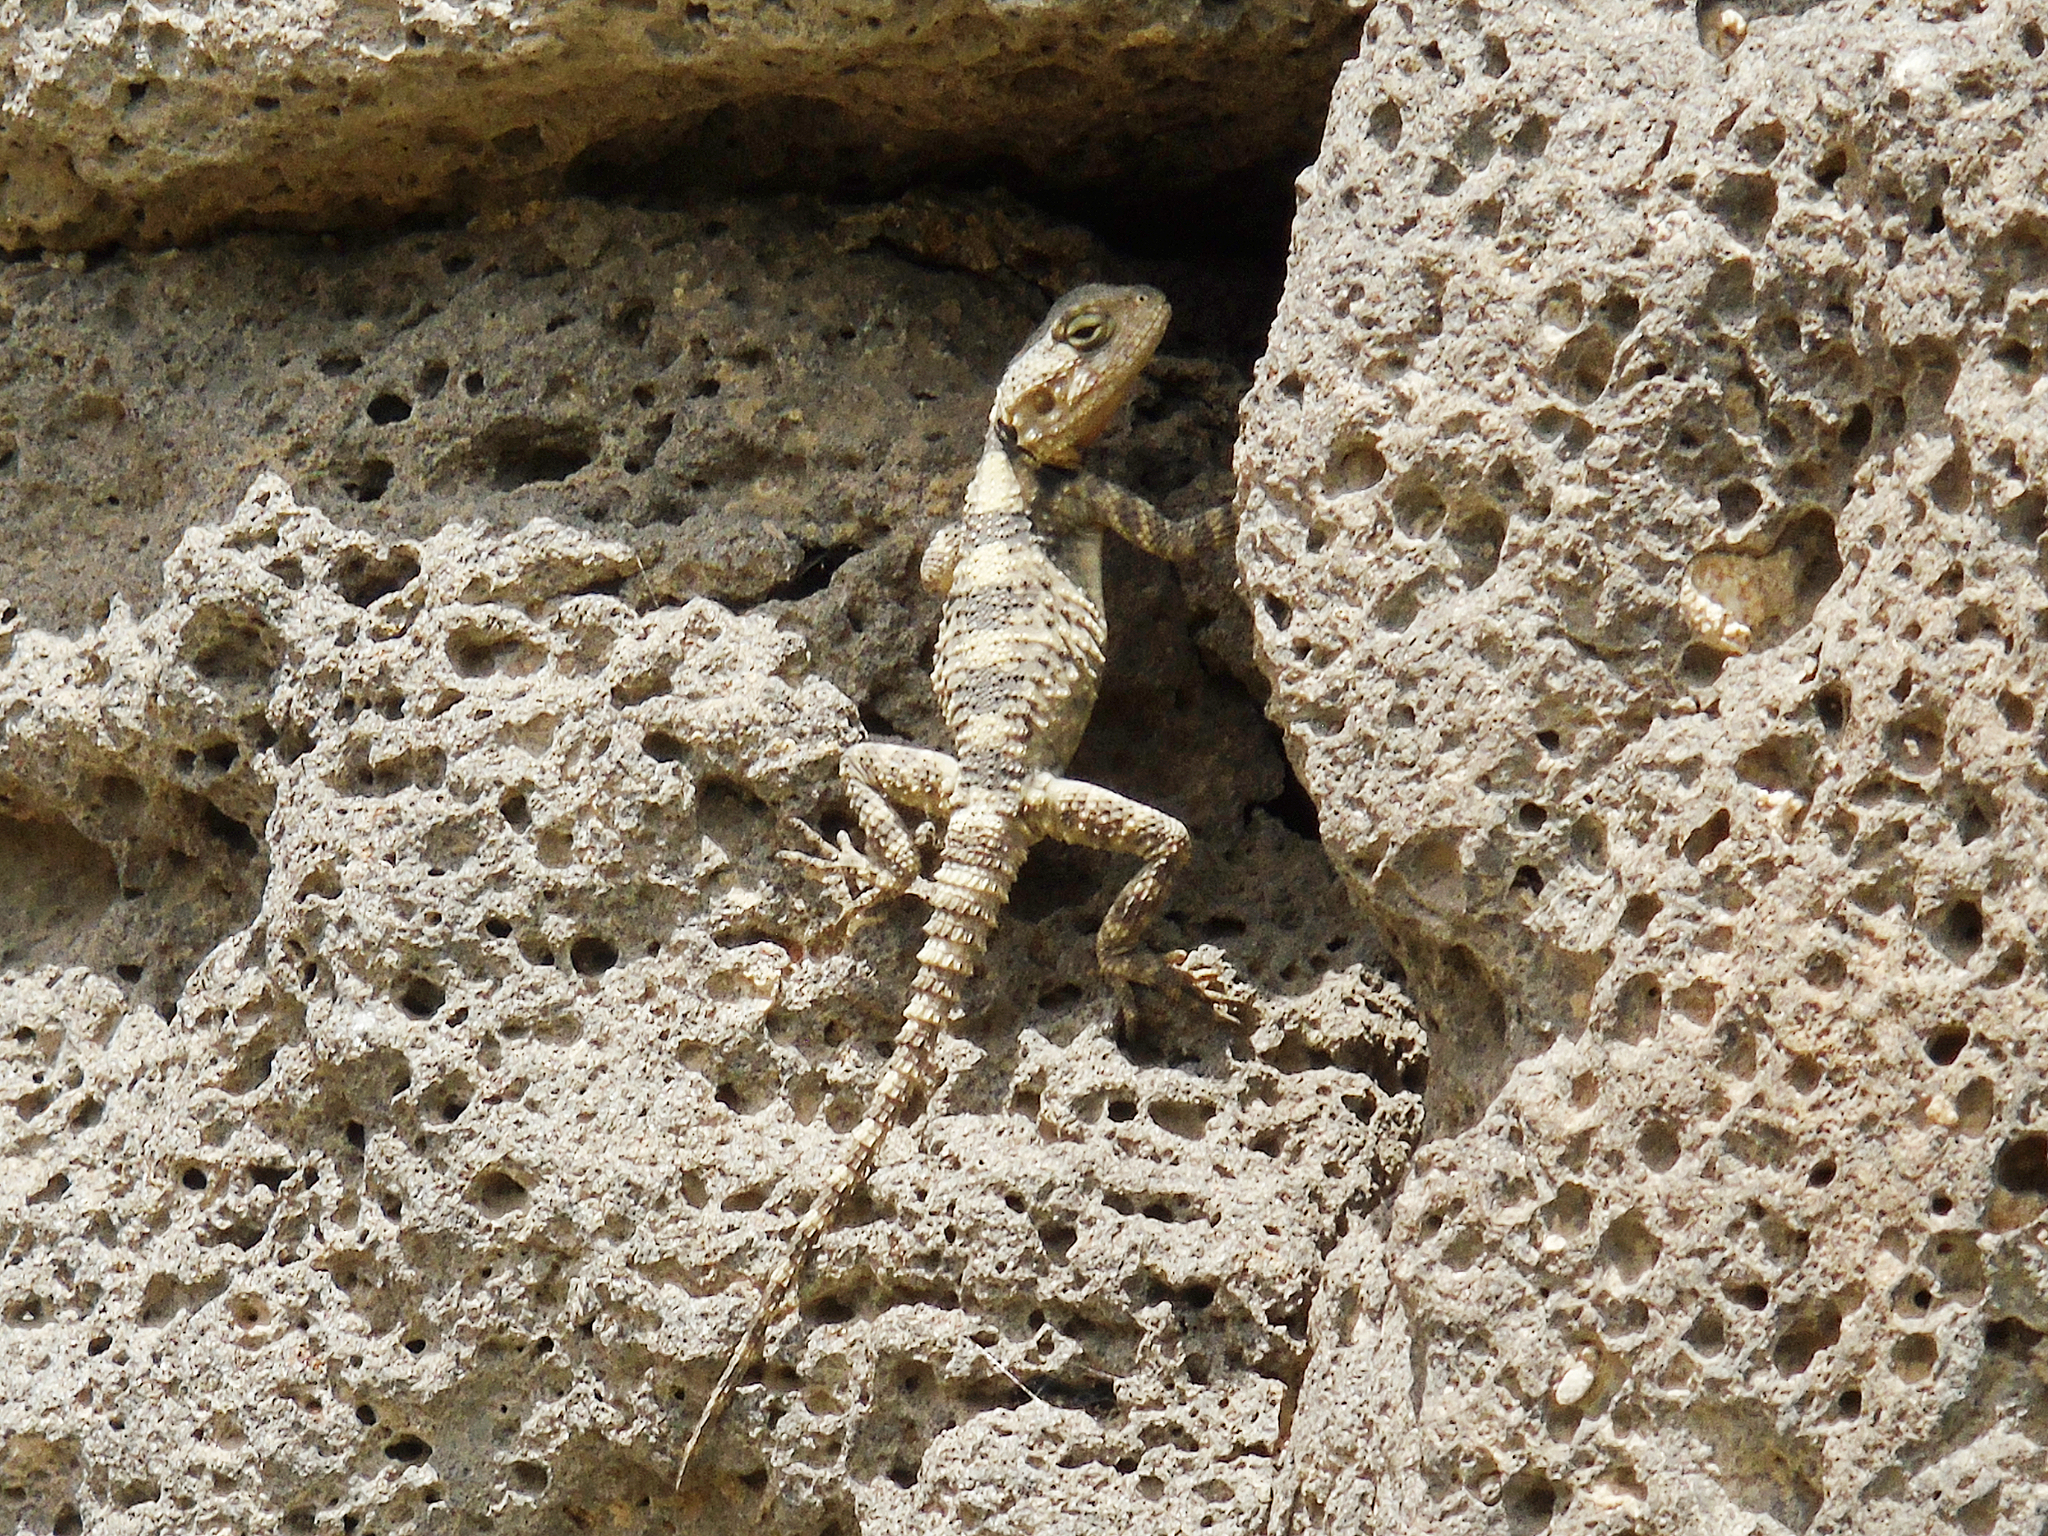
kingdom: Animalia
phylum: Chordata
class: Squamata
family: Agamidae
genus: Stellagama
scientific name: Stellagama stellio
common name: Starred agama
